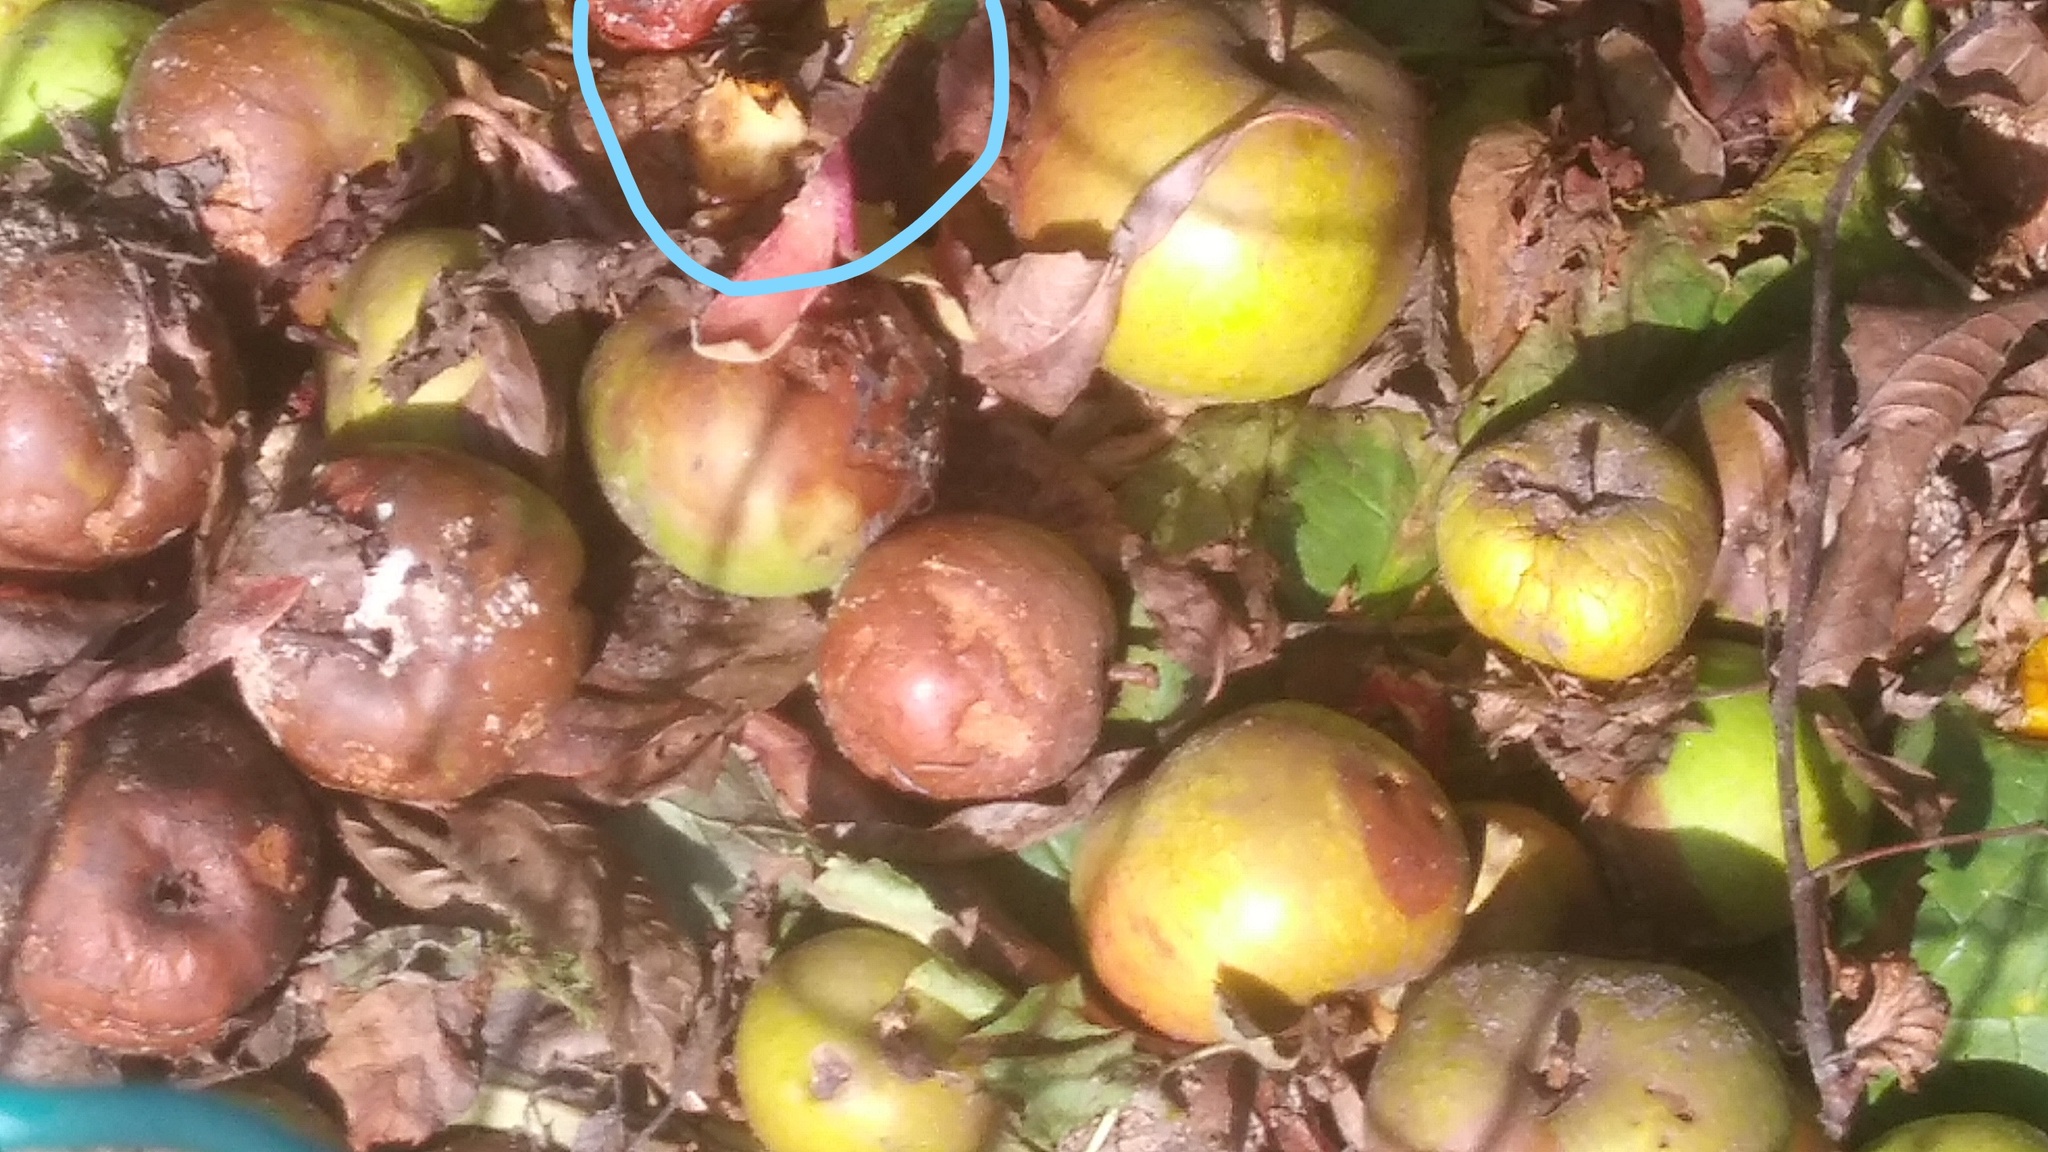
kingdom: Animalia
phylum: Arthropoda
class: Insecta
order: Hymenoptera
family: Vespidae
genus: Vespa
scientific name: Vespa velutina
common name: Asian hornet
